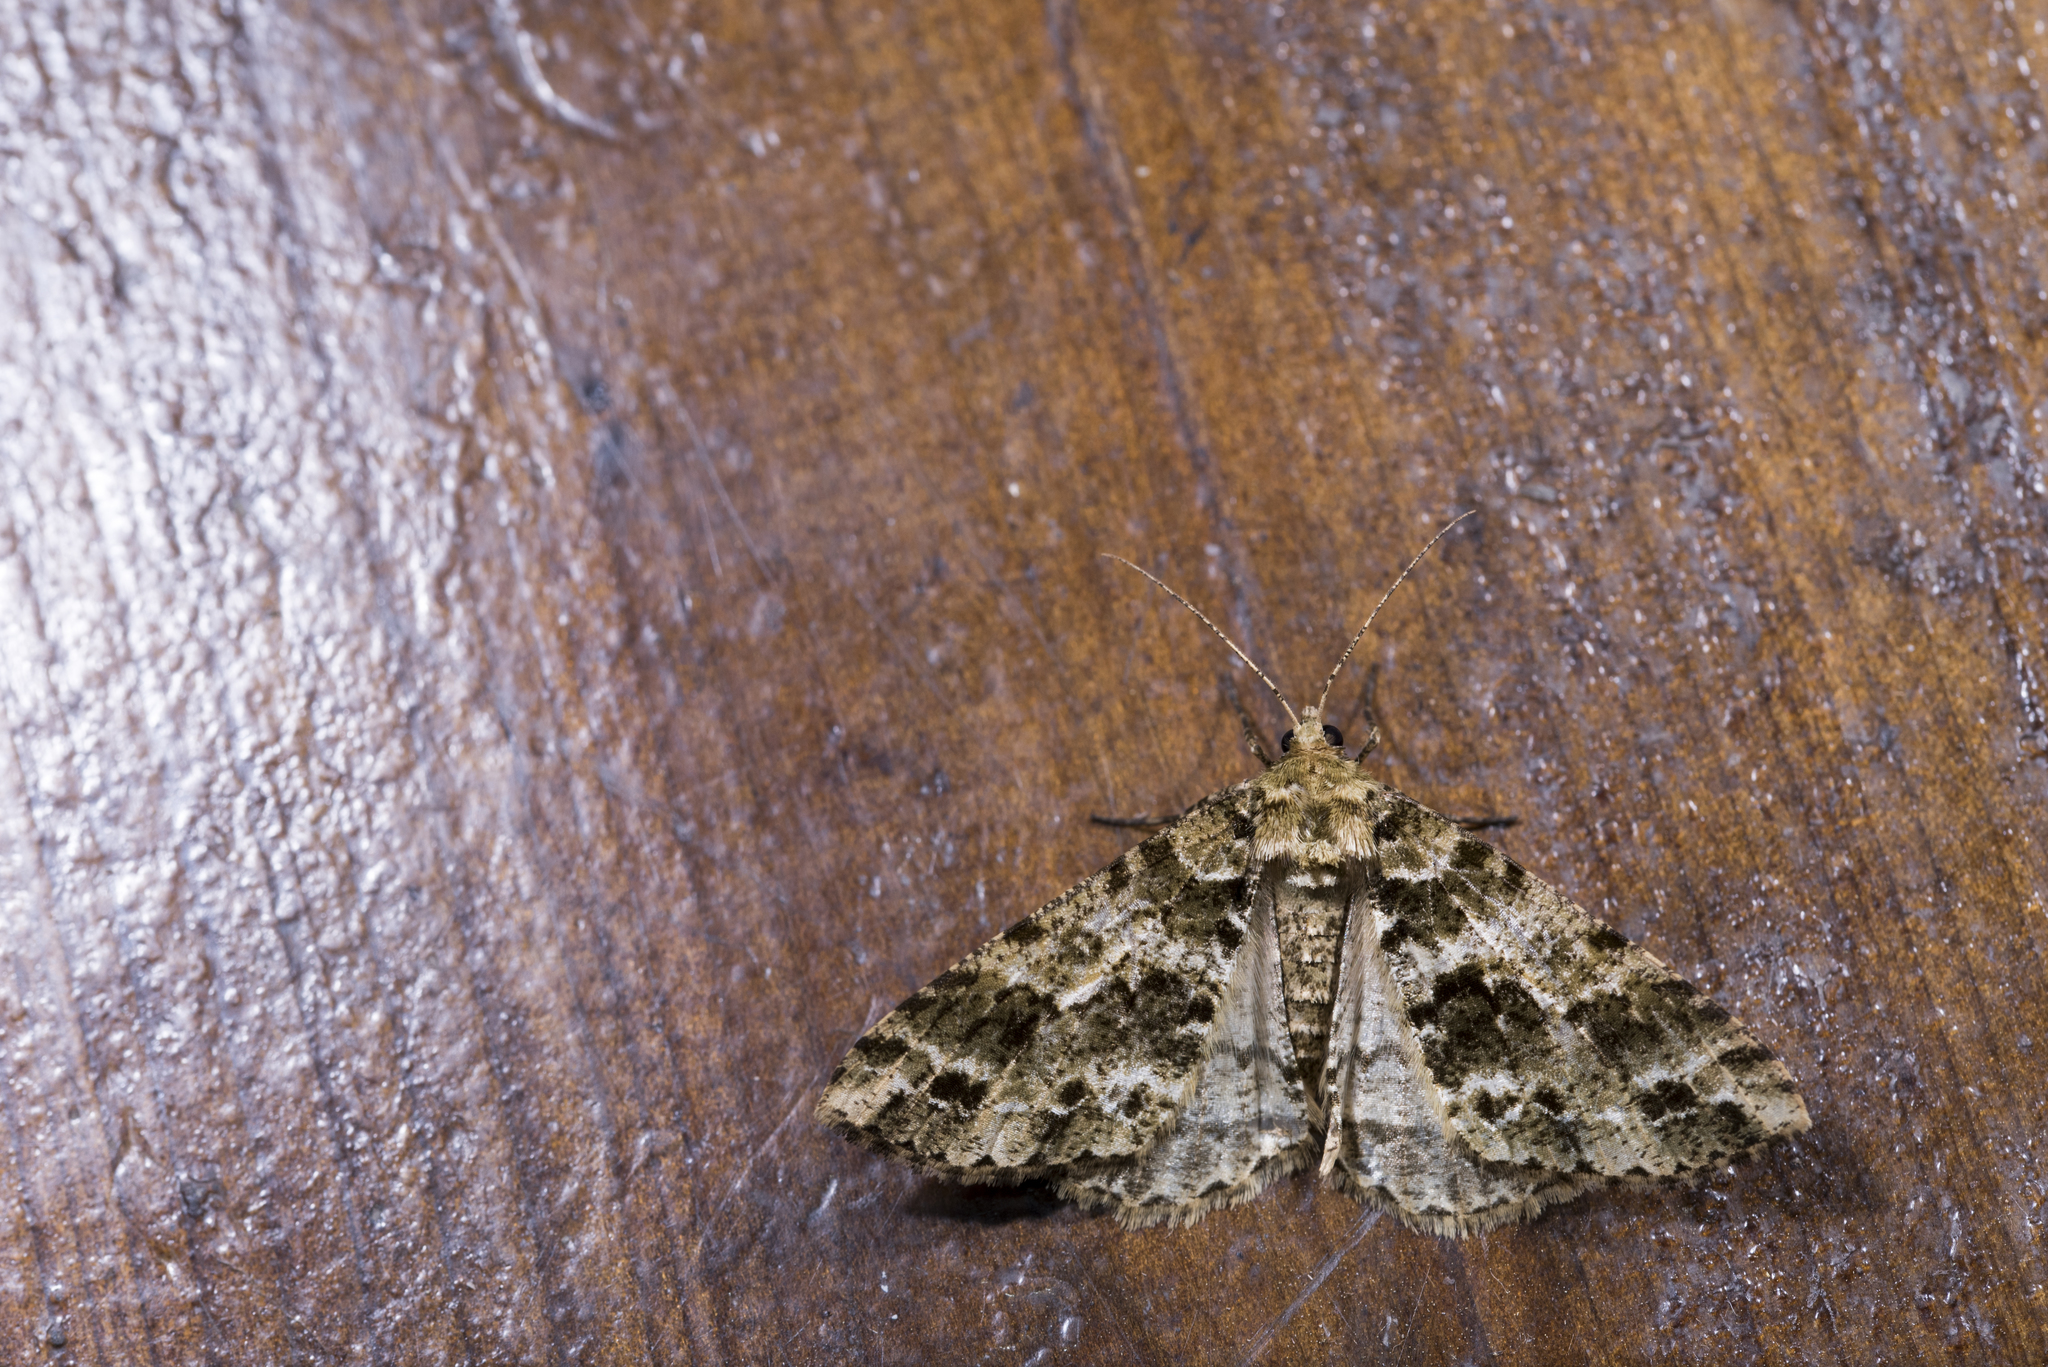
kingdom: Animalia
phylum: Arthropoda
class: Insecta
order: Lepidoptera
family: Geometridae
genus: Arichanna
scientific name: Arichanna marginata
